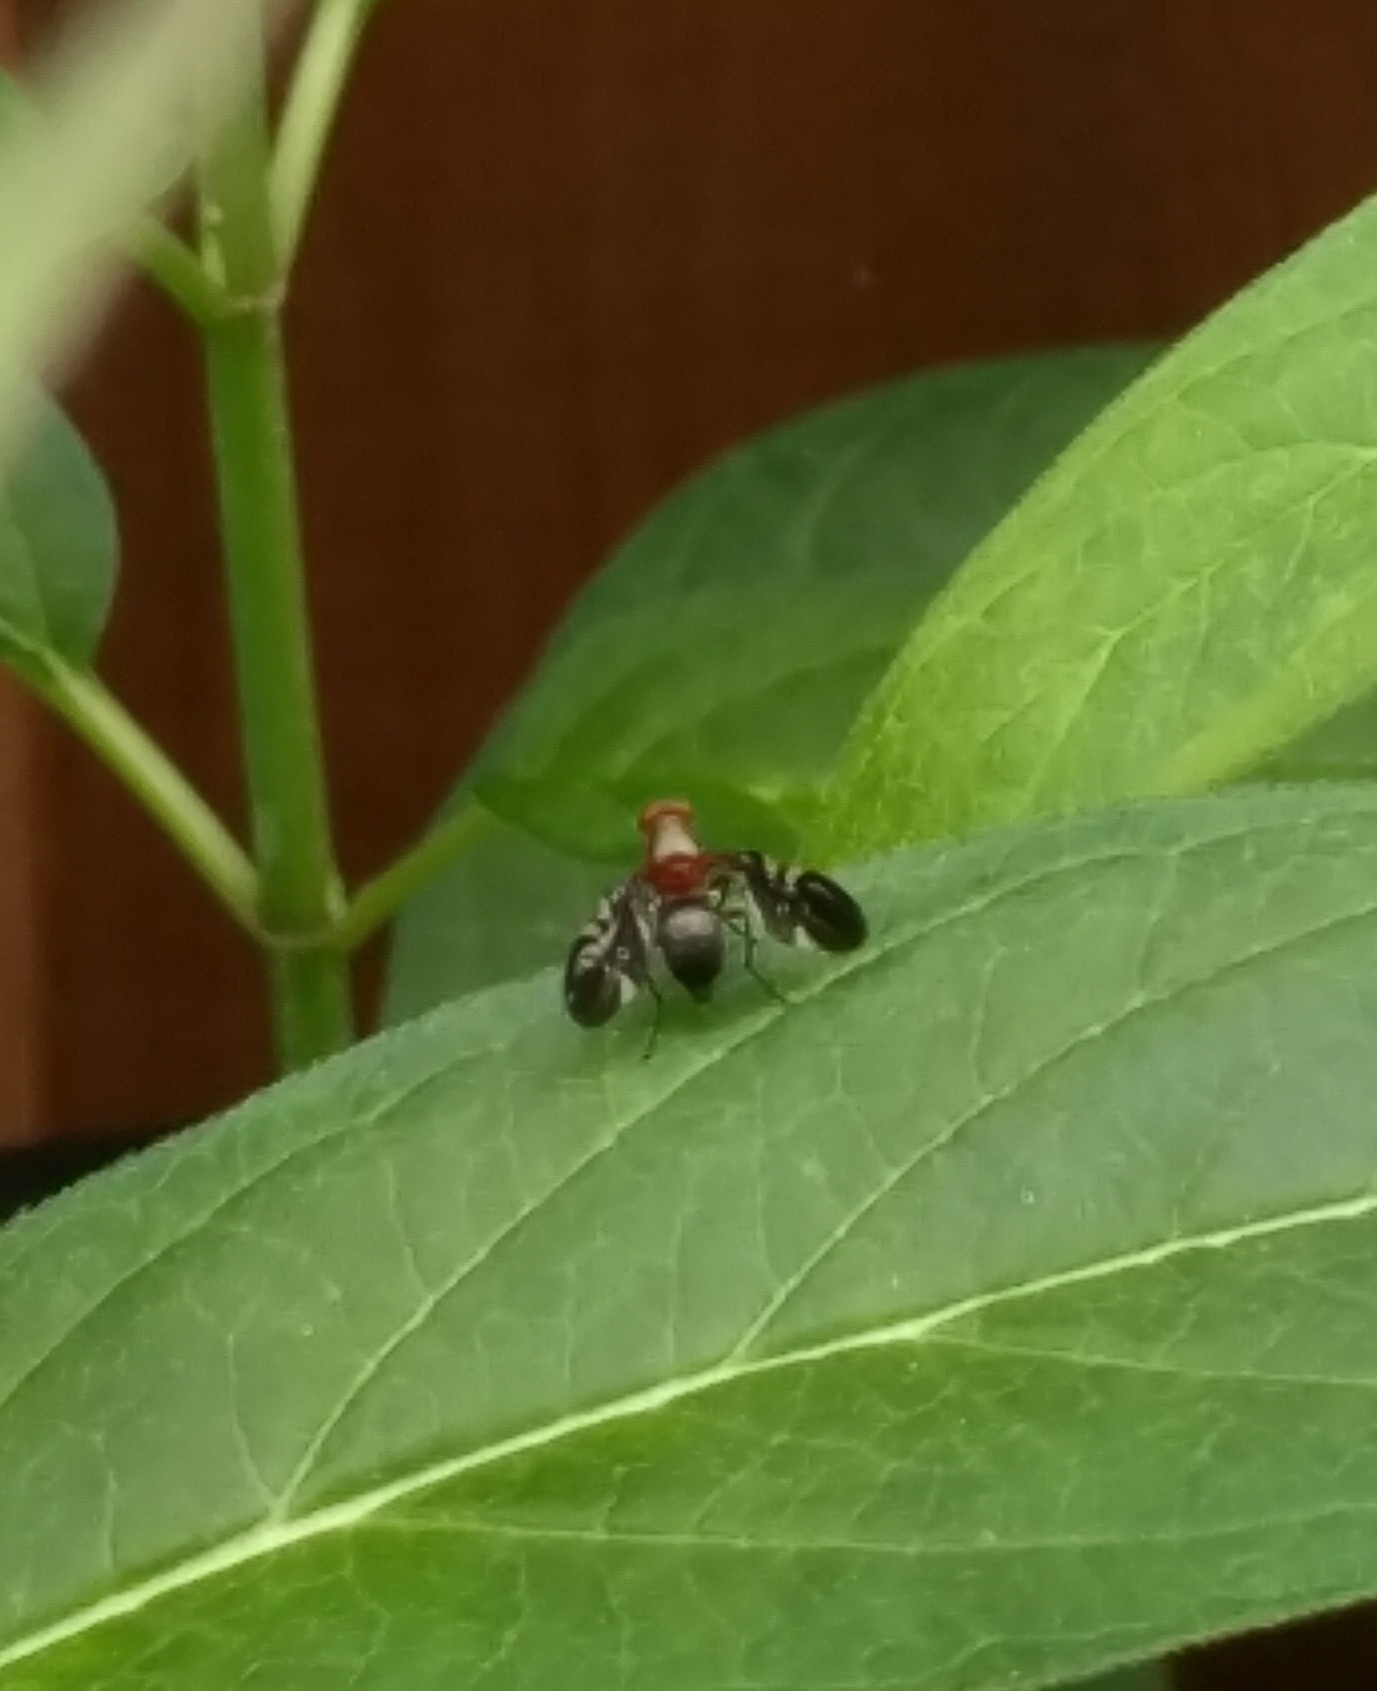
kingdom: Animalia
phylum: Arthropoda
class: Insecta
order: Diptera
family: Ulidiidae
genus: Delphinia
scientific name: Delphinia picta
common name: Common picture-winged fly
